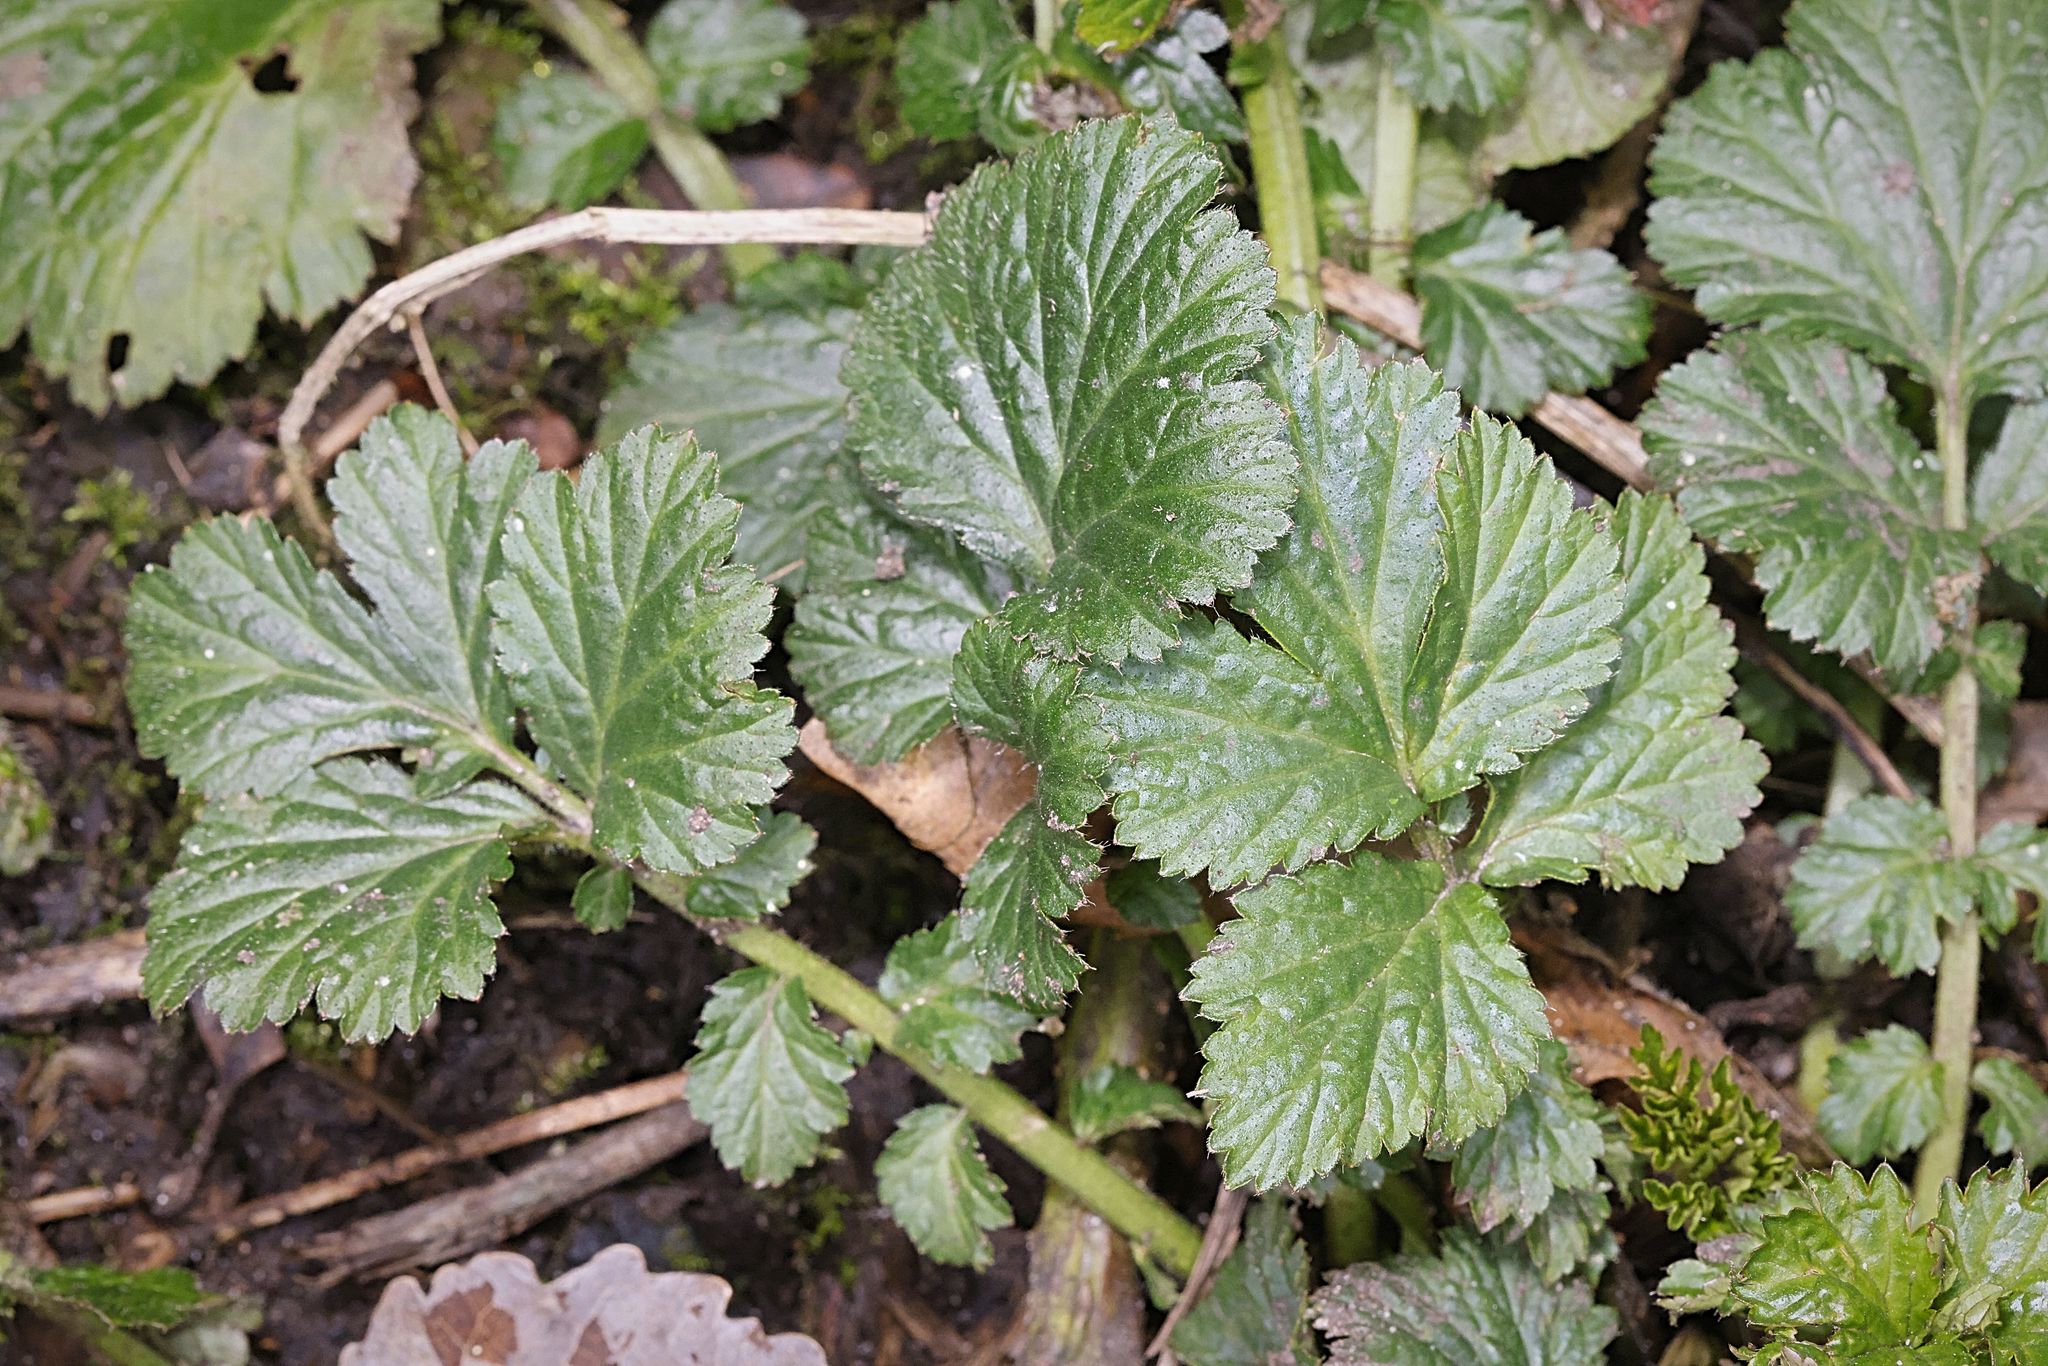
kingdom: Plantae
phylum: Tracheophyta
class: Magnoliopsida
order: Rosales
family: Rosaceae
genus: Geum
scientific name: Geum urbanum
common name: Wood avens
